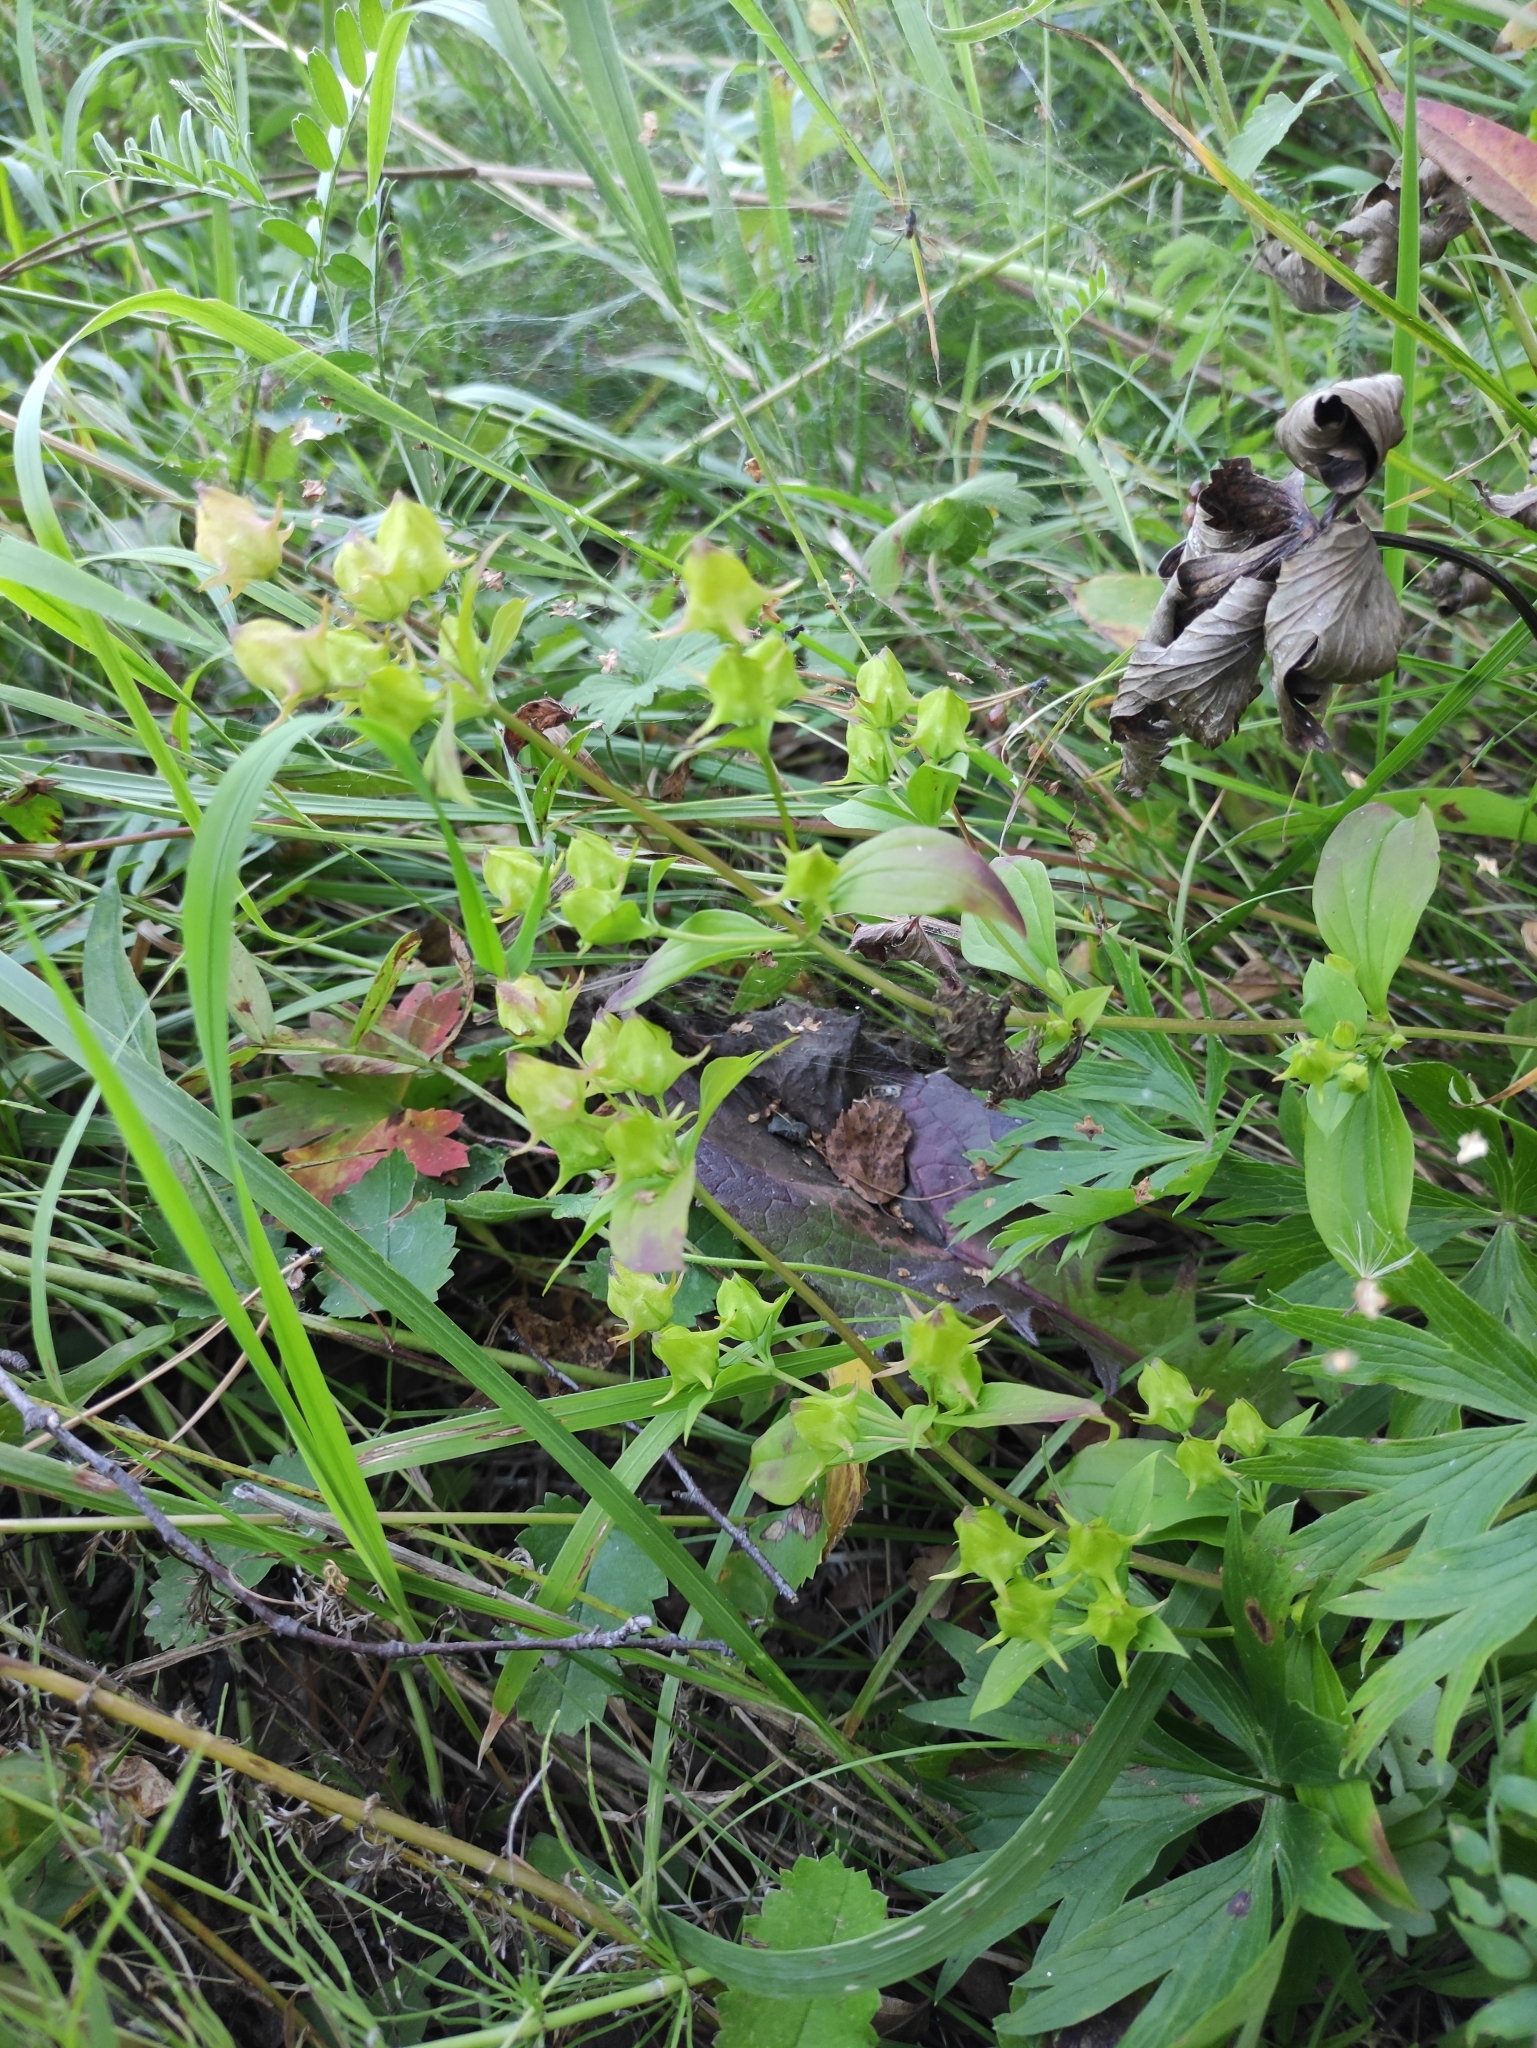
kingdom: Plantae
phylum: Tracheophyta
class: Magnoliopsida
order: Gentianales
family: Gentianaceae
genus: Halenia
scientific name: Halenia corniculata
